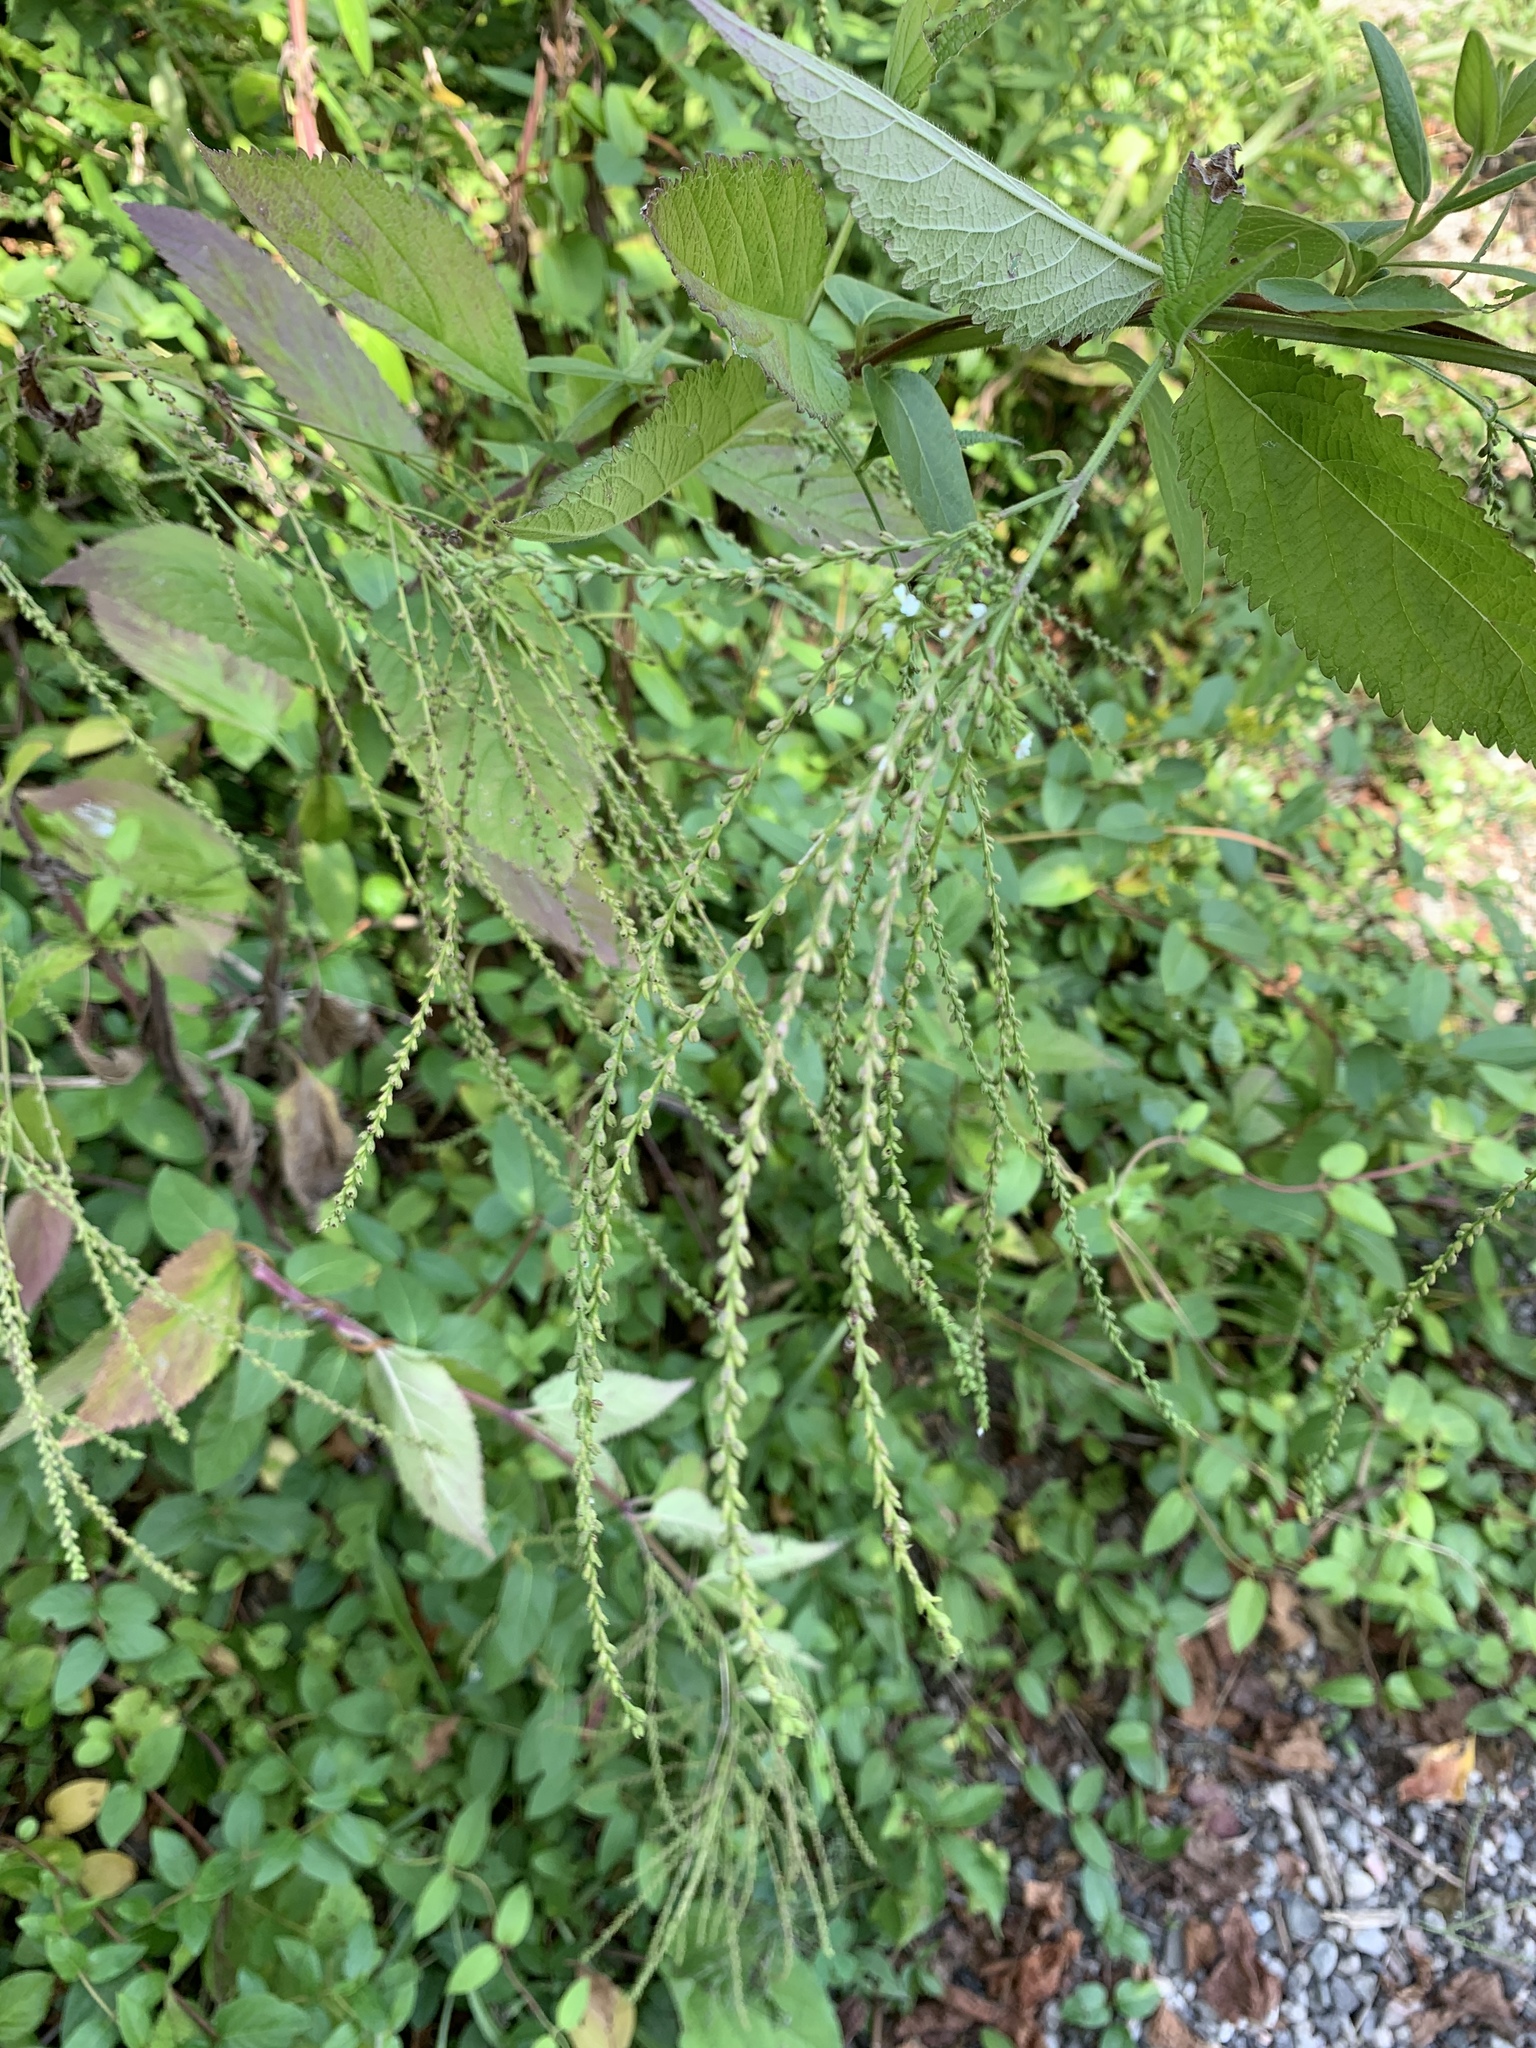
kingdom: Plantae
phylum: Tracheophyta
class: Magnoliopsida
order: Lamiales
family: Verbenaceae
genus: Verbena
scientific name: Verbena urticifolia
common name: Nettle-leaved vervain
